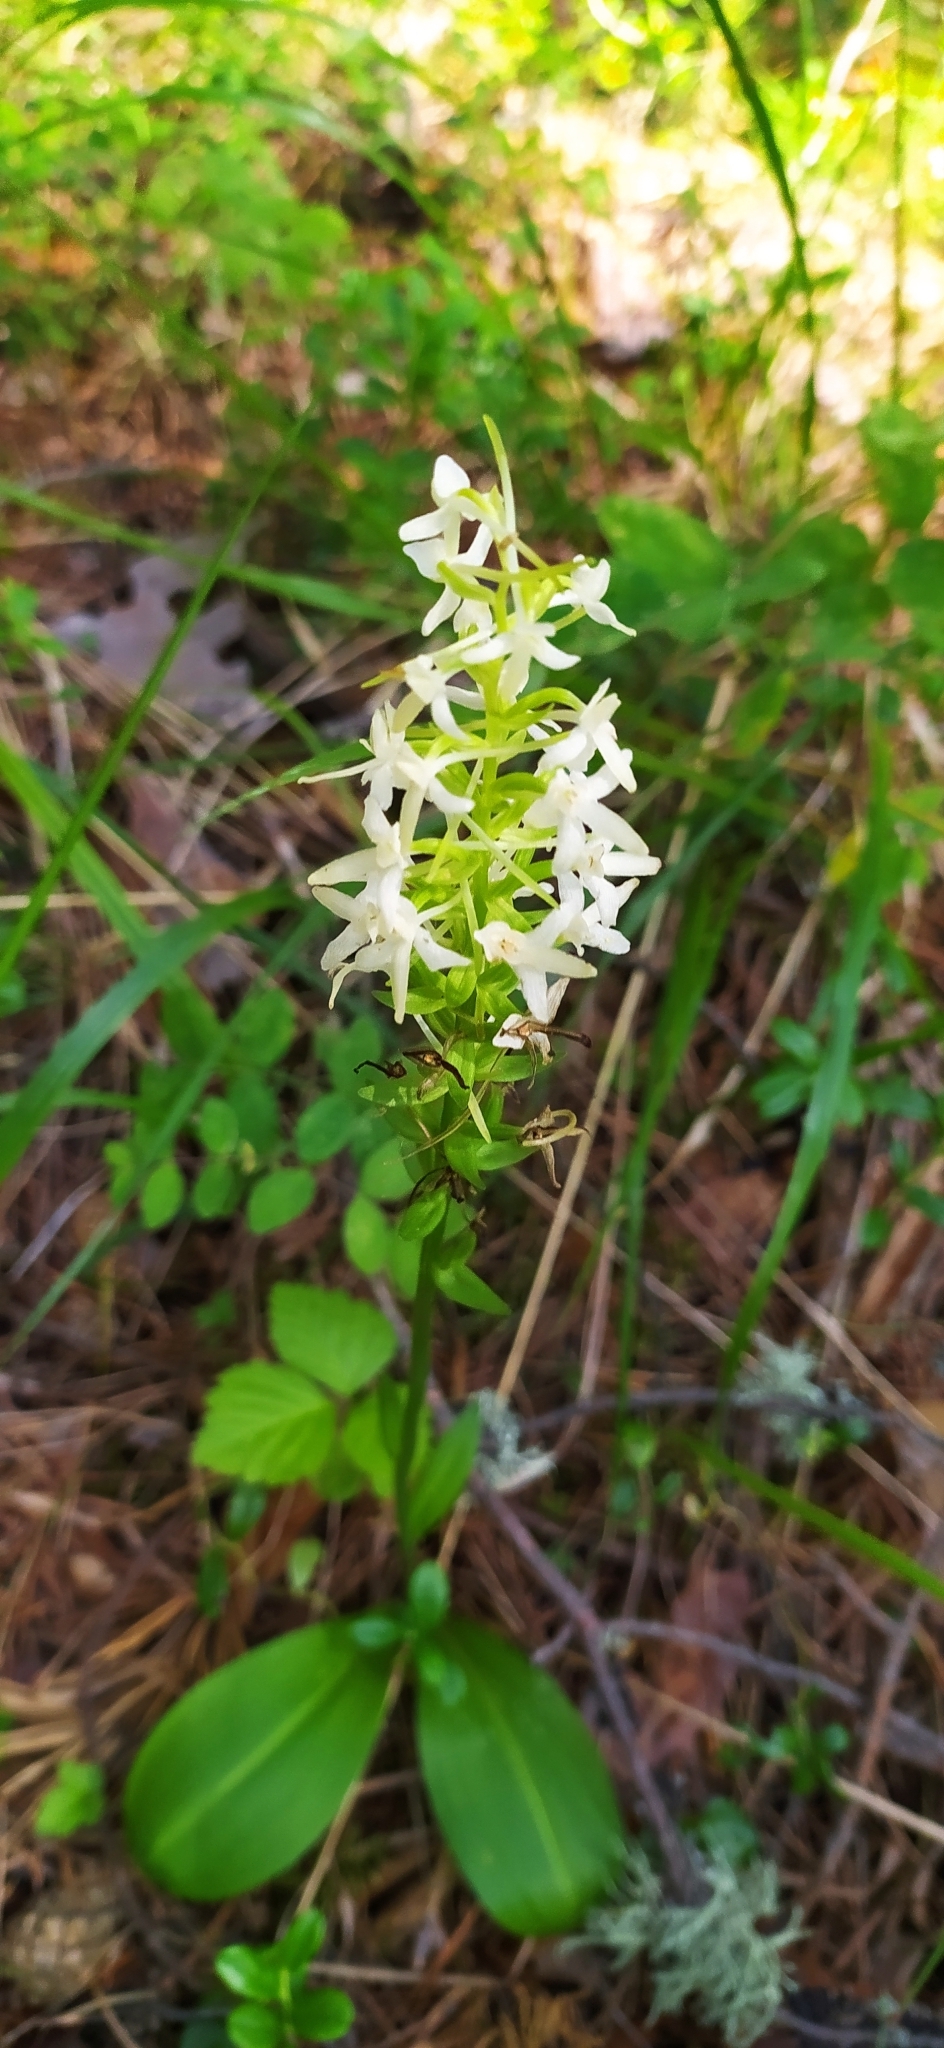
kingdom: Plantae
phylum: Tracheophyta
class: Liliopsida
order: Asparagales
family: Orchidaceae
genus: Platanthera
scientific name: Platanthera bifolia
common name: Lesser butterfly-orchid
